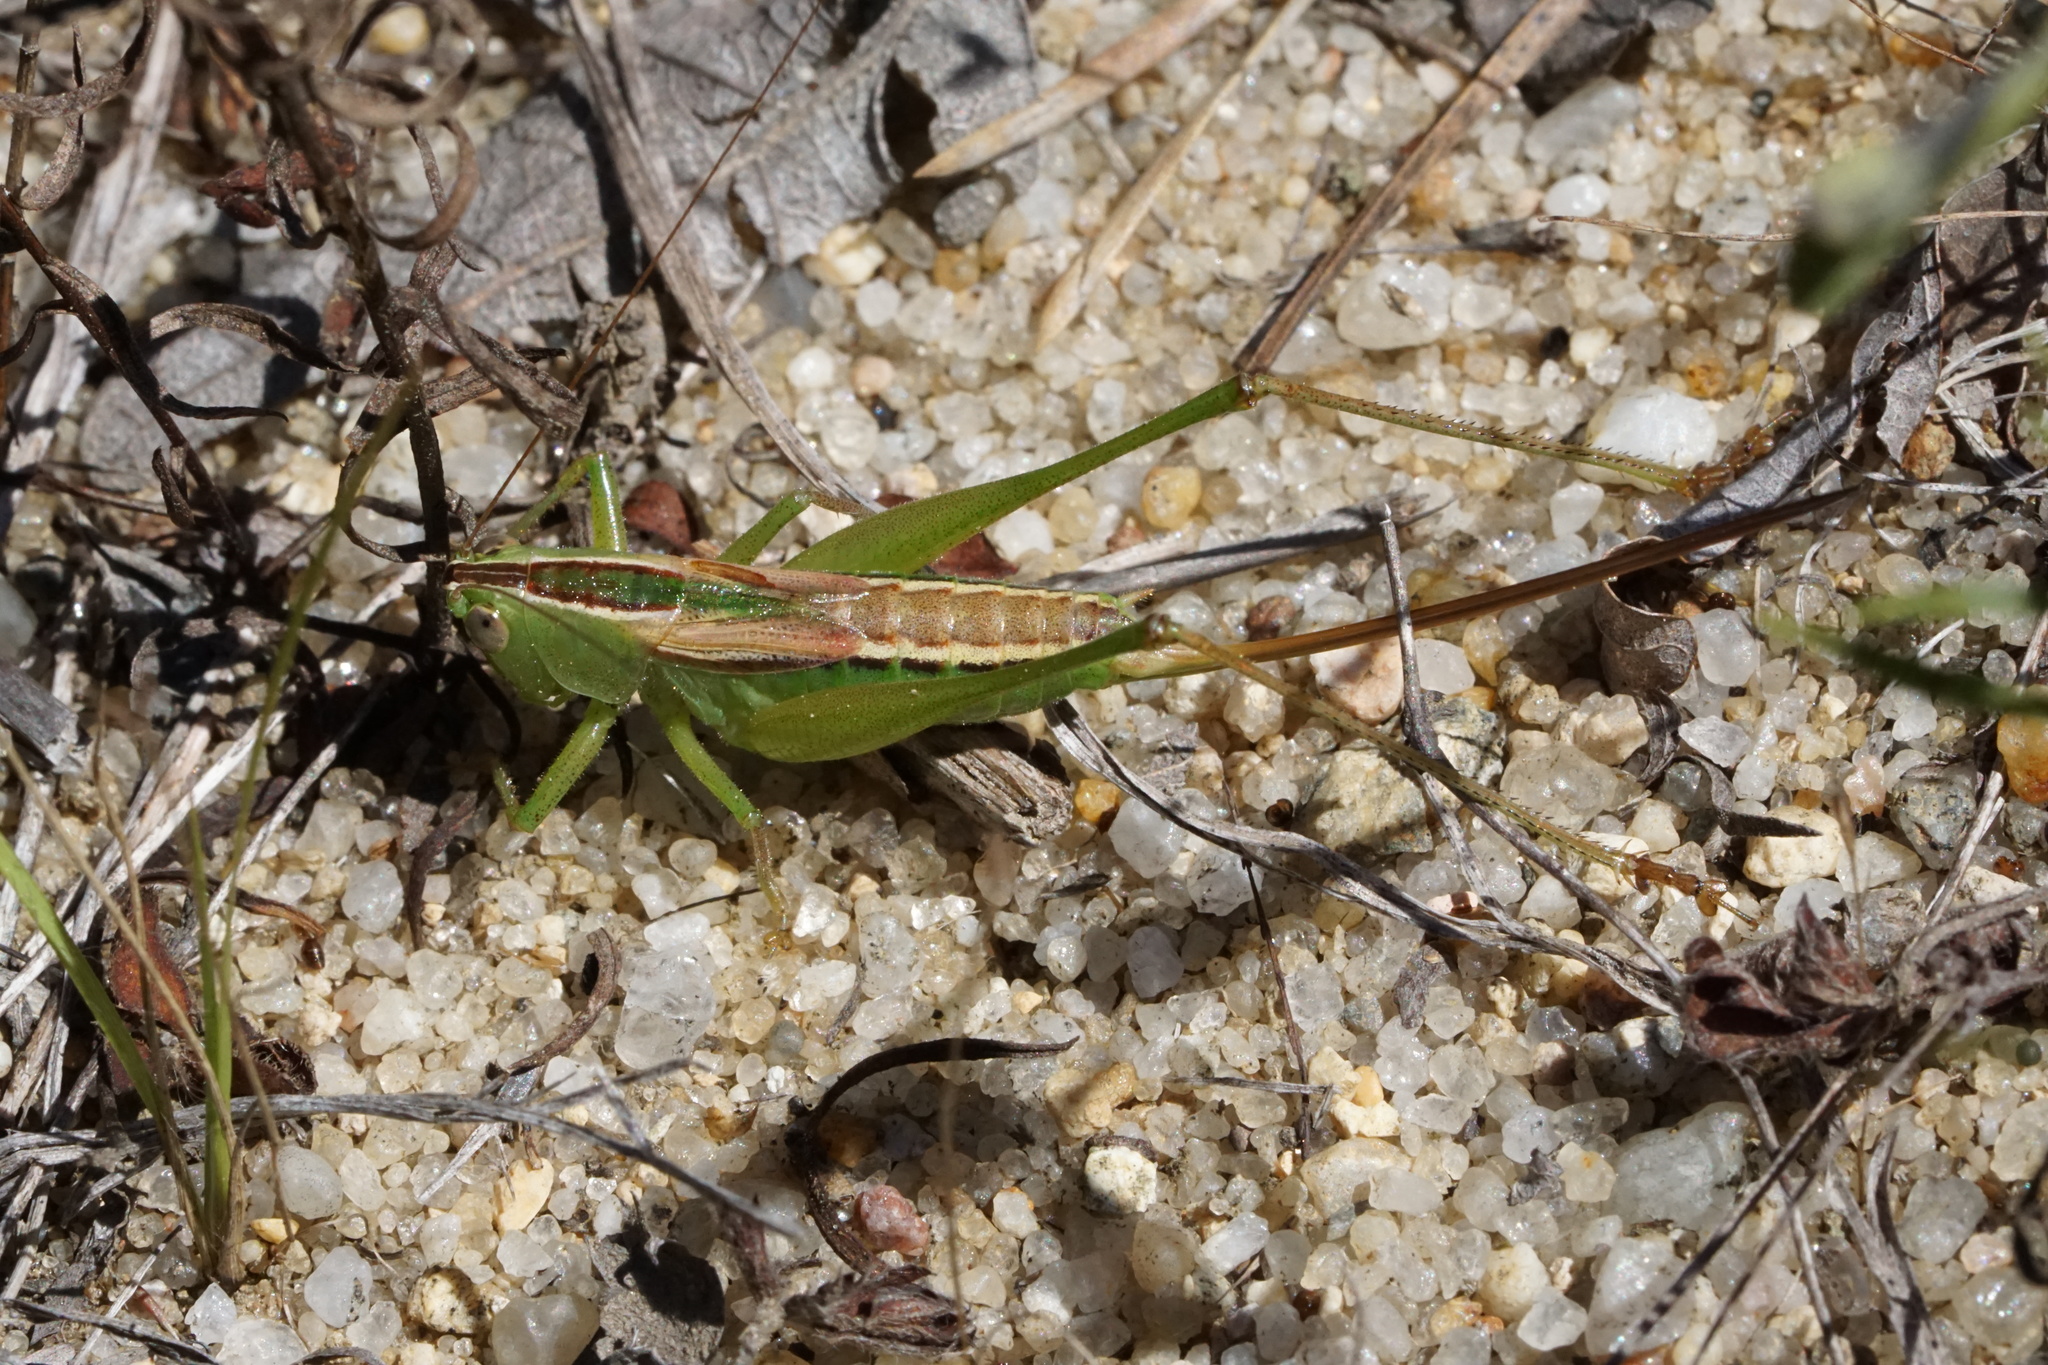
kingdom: Animalia
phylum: Arthropoda
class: Insecta
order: Orthoptera
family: Tettigoniidae
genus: Conocephalus
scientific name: Conocephalus strictus
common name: Straight-lanced katydid
